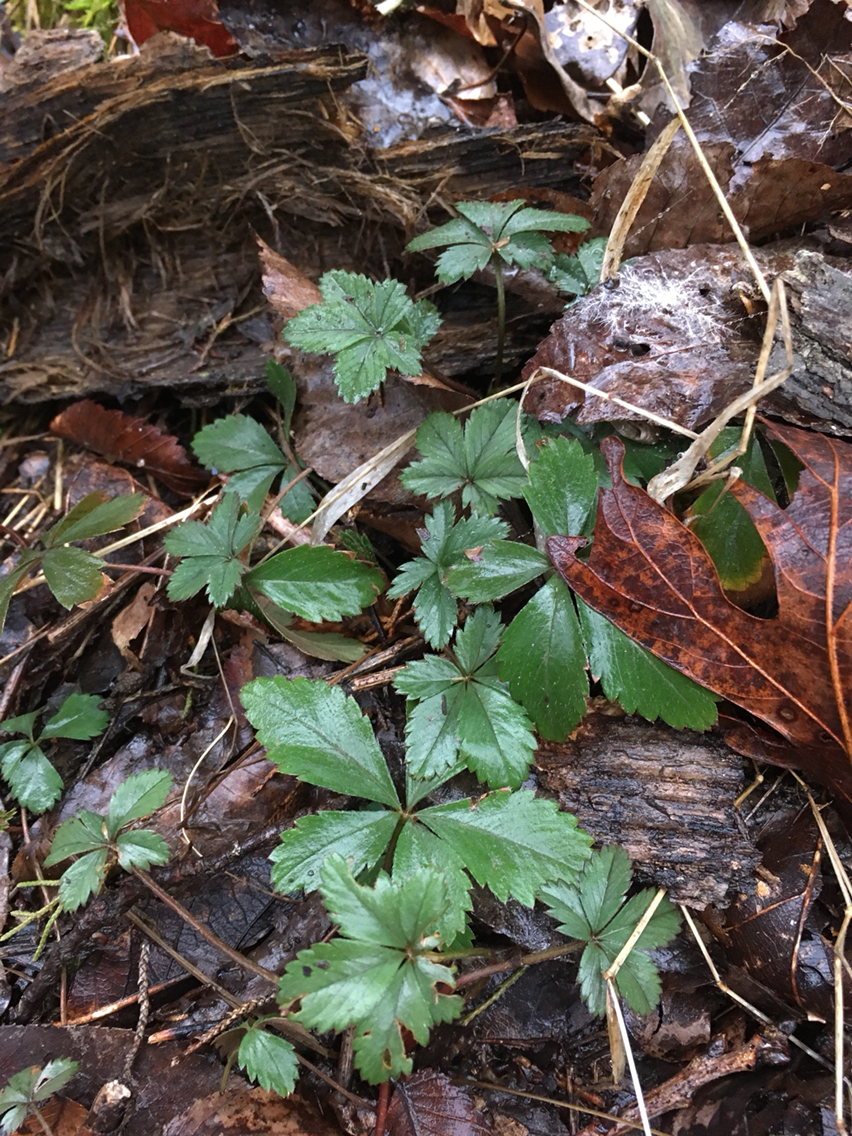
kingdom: Plantae
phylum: Tracheophyta
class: Magnoliopsida
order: Rosales
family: Rosaceae
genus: Potentilla
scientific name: Potentilla simplex
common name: Old field cinquefoil
